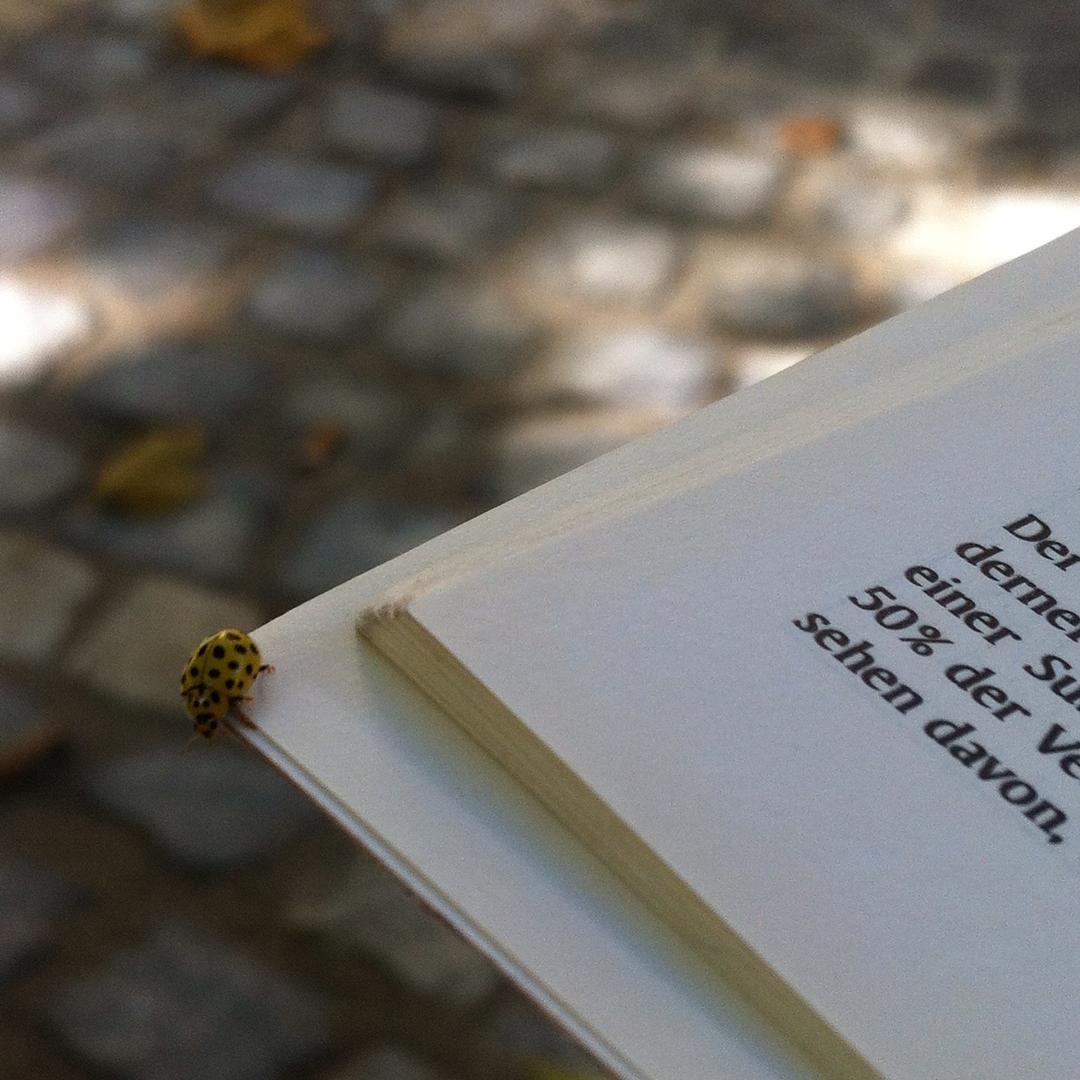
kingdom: Animalia
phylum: Arthropoda
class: Insecta
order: Coleoptera
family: Coccinellidae
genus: Psyllobora
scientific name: Psyllobora vigintiduopunctata
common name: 22-spot ladybird
